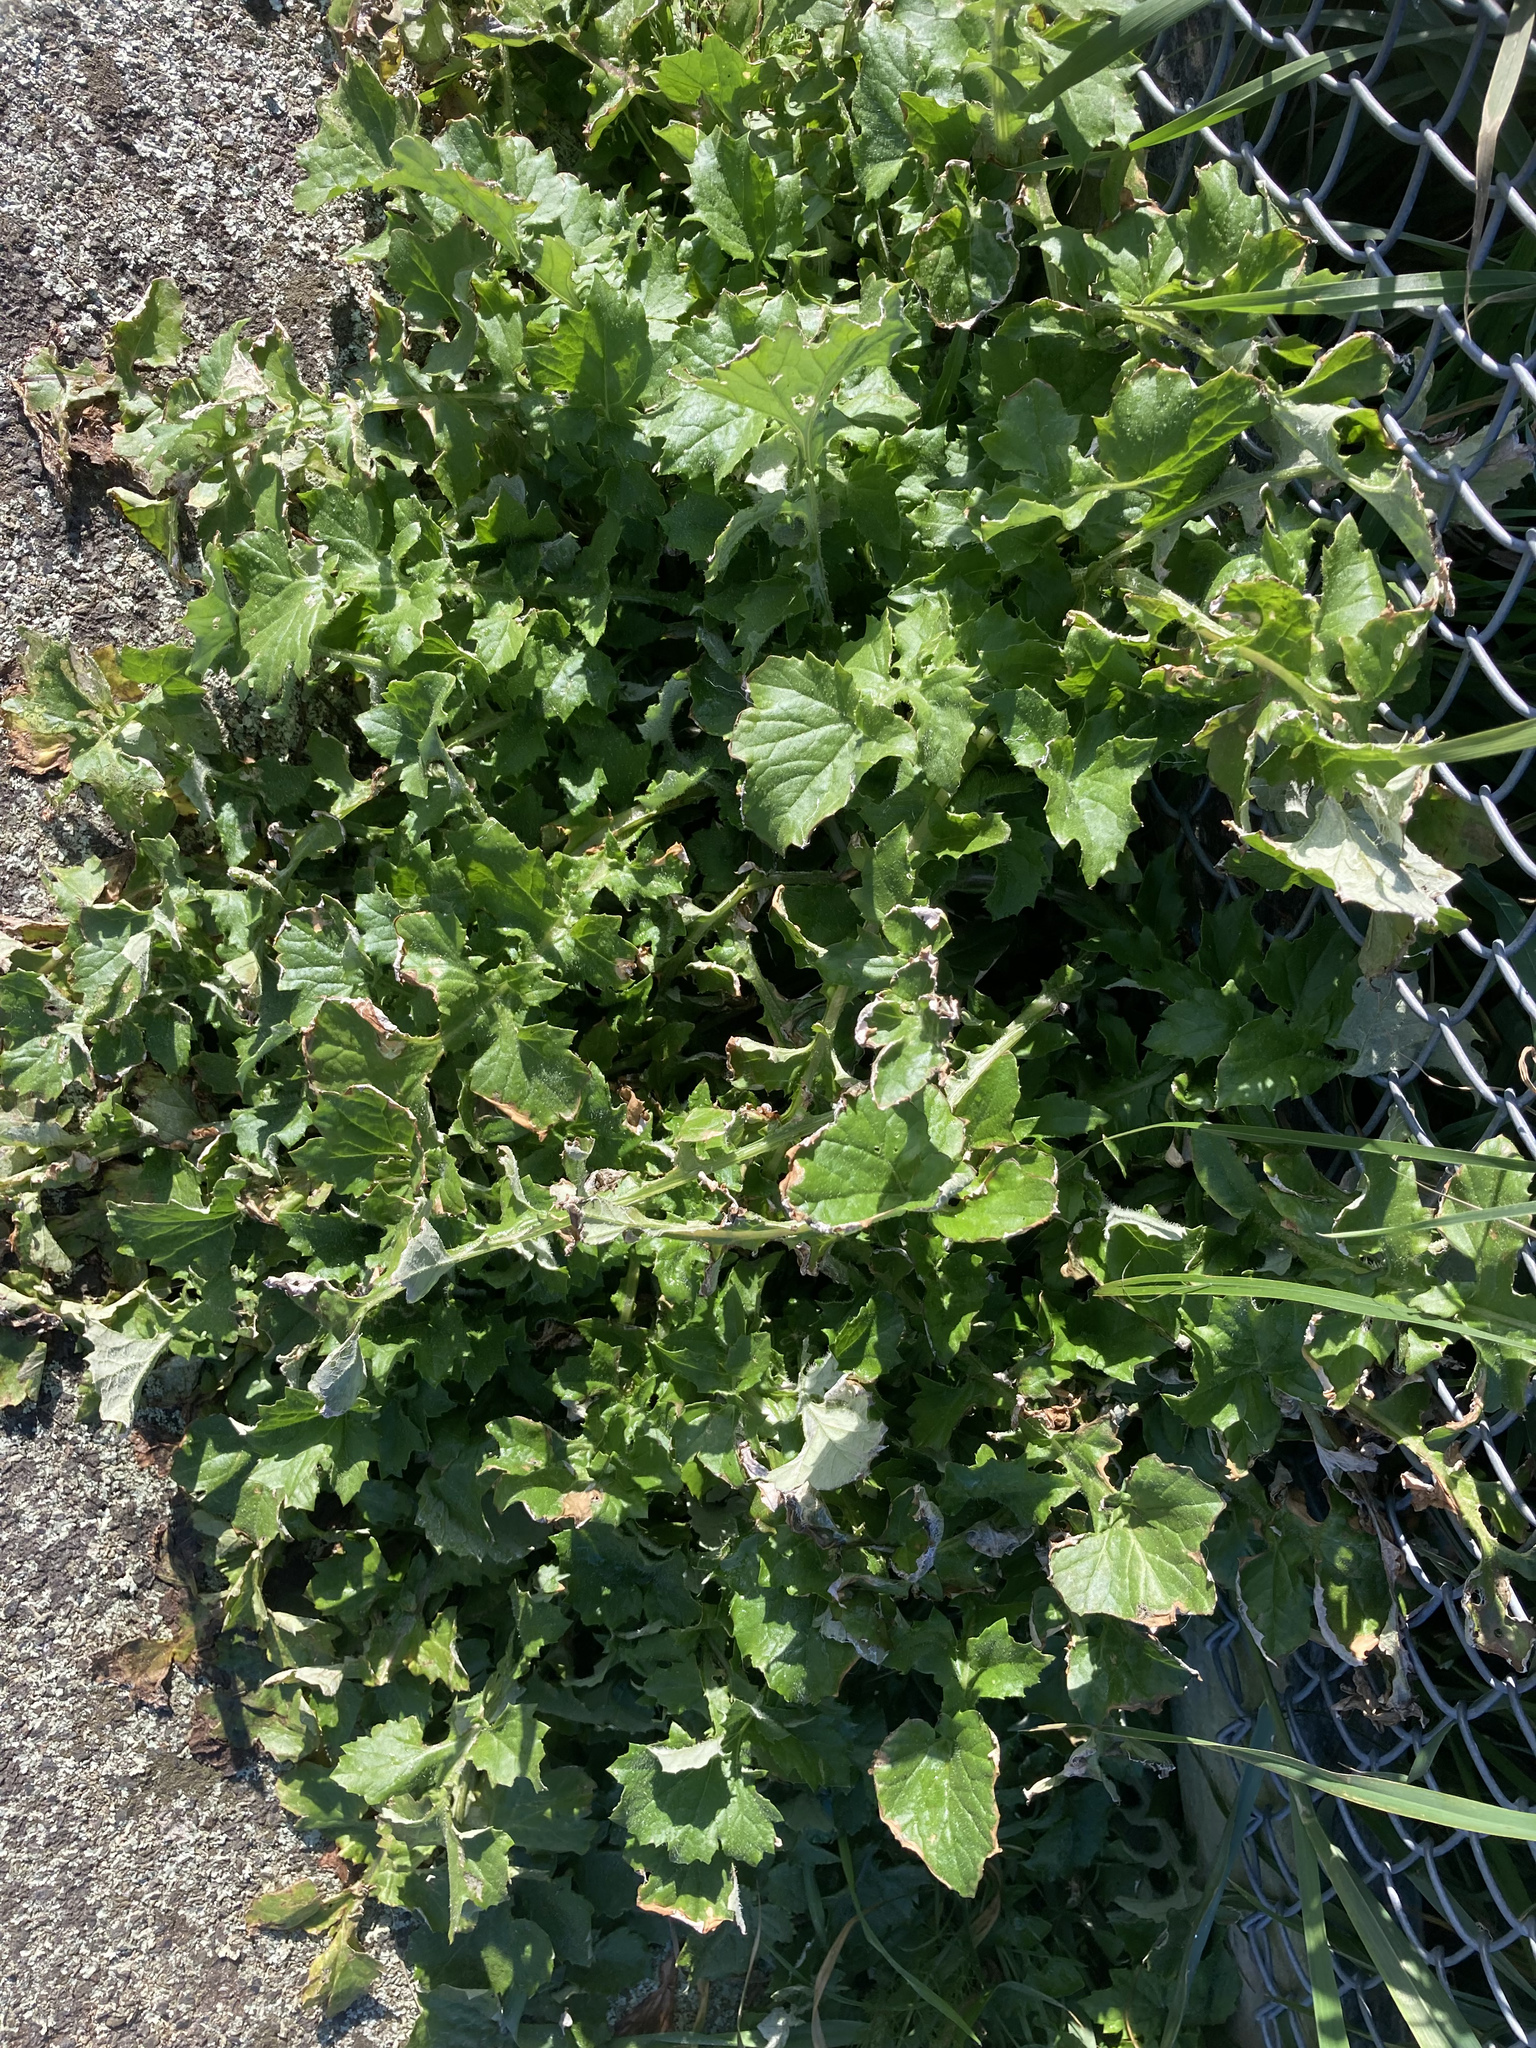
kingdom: Plantae
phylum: Tracheophyta
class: Magnoliopsida
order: Asterales
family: Asteraceae
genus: Arctotheca
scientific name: Arctotheca calendula
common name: Capeweed
